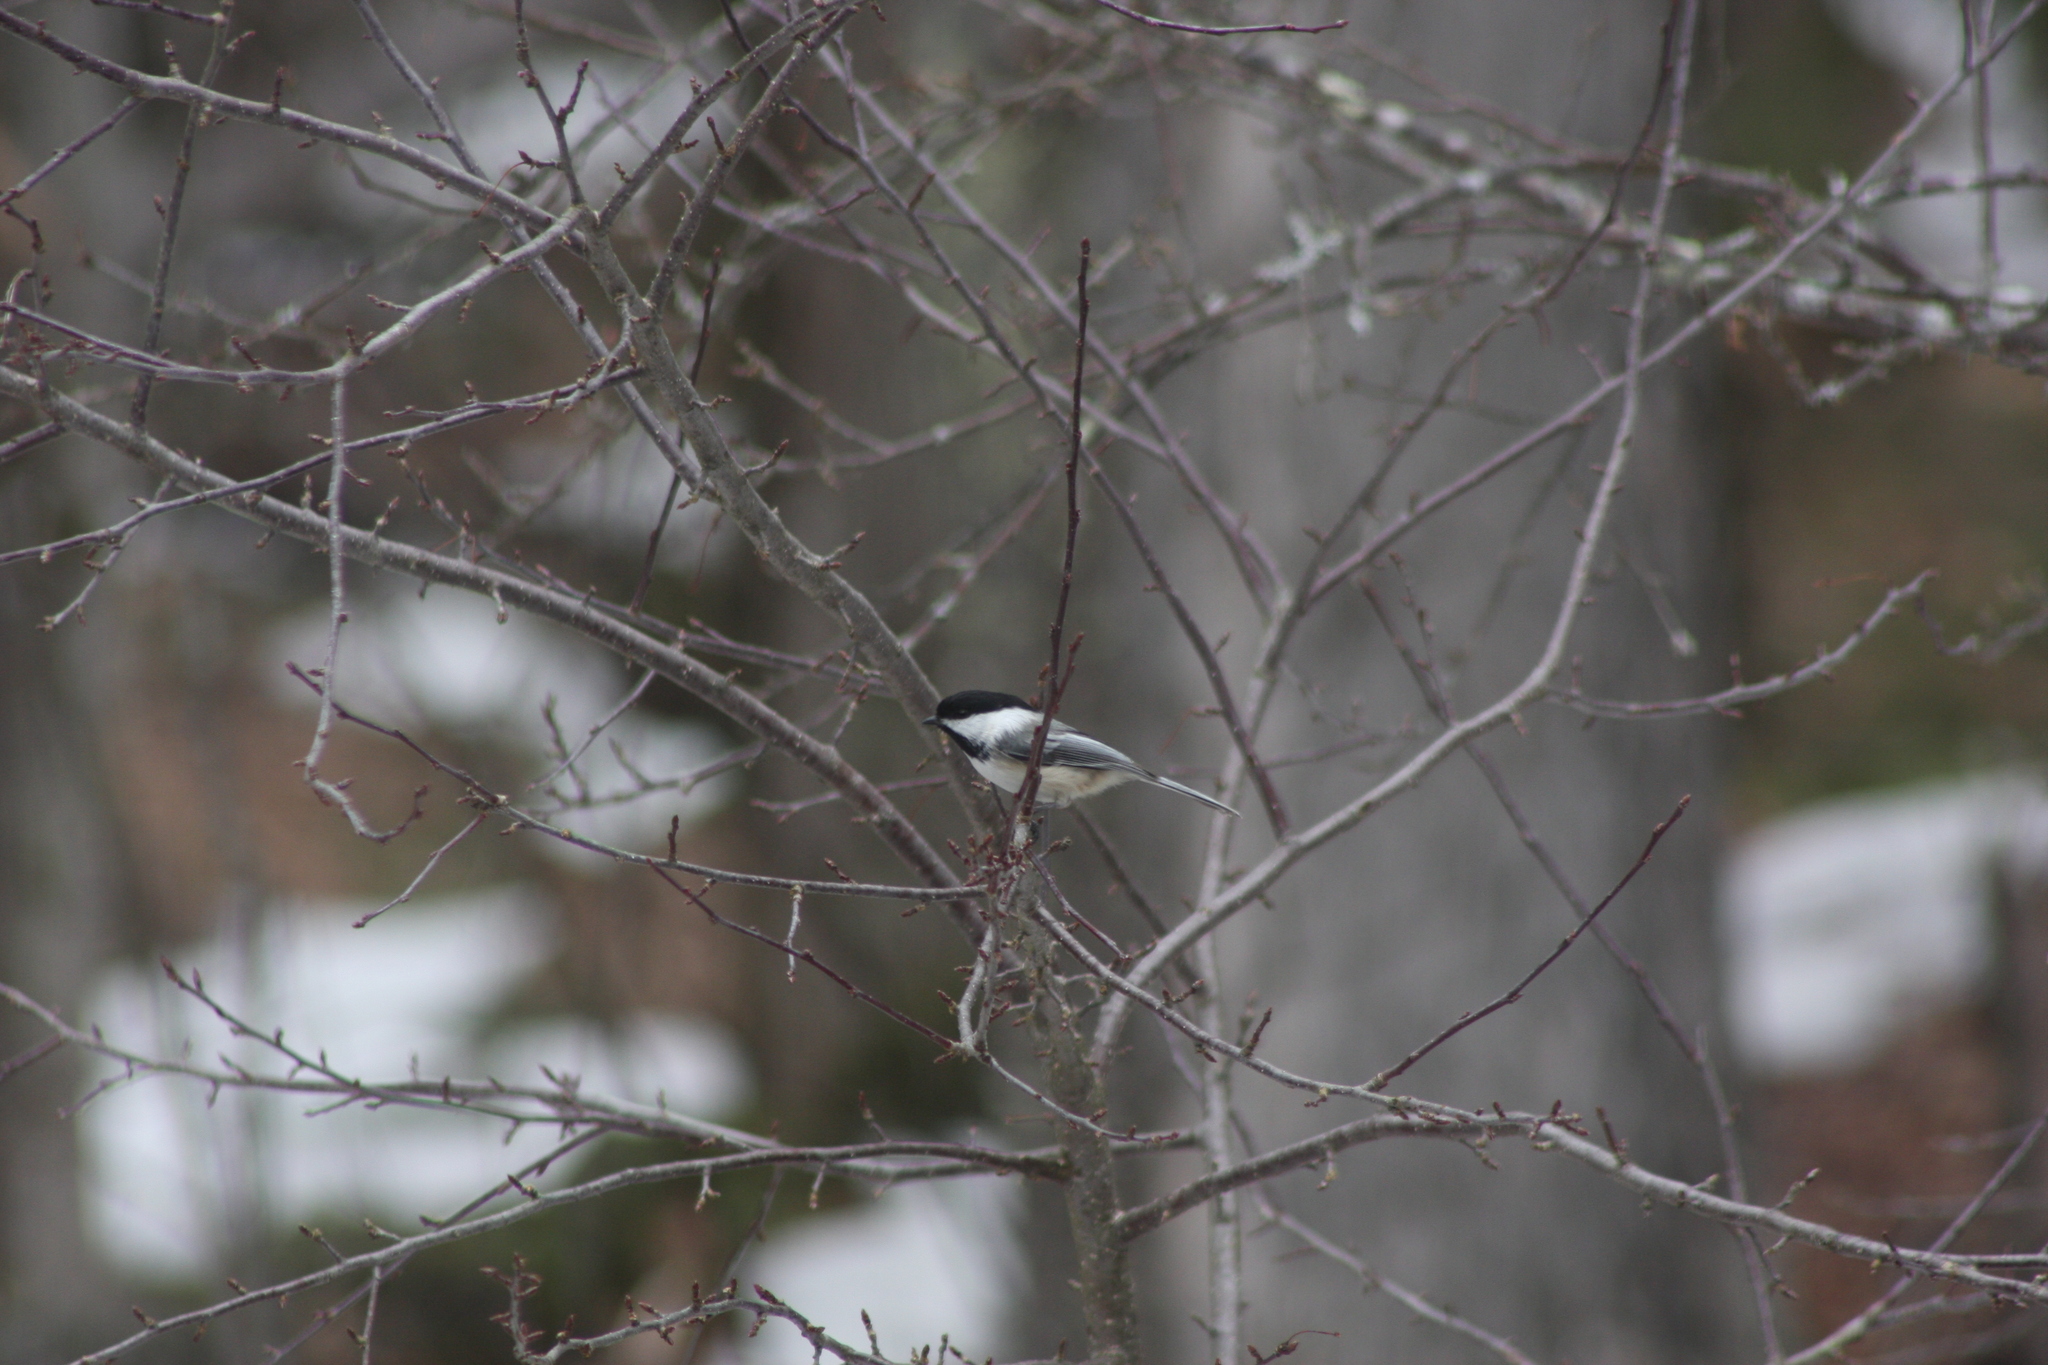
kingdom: Animalia
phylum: Chordata
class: Aves
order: Passeriformes
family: Paridae
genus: Poecile
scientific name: Poecile atricapillus
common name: Black-capped chickadee
